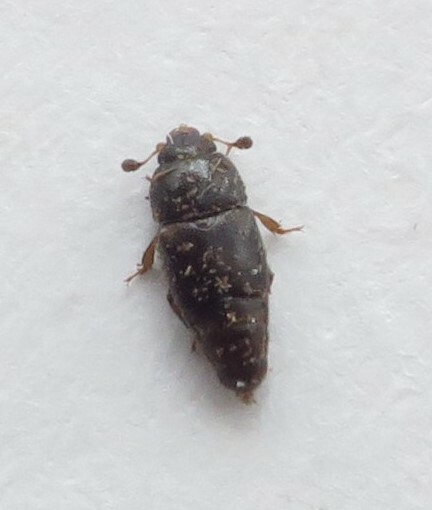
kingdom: Animalia
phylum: Arthropoda
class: Insecta
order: Coleoptera
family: Nitidulidae
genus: Urophorus
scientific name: Urophorus humeralis
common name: Sap beetle
